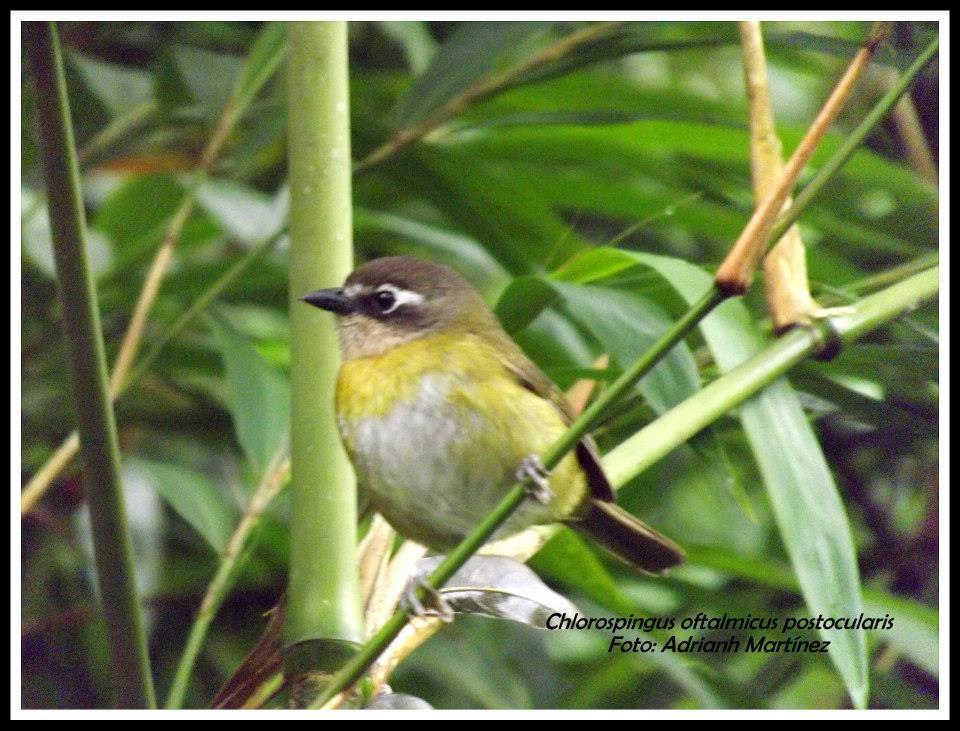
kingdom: Animalia
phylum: Chordata
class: Aves
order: Passeriformes
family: Passerellidae
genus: Chlorospingus
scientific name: Chlorospingus flavopectus
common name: Common chlorospingus
